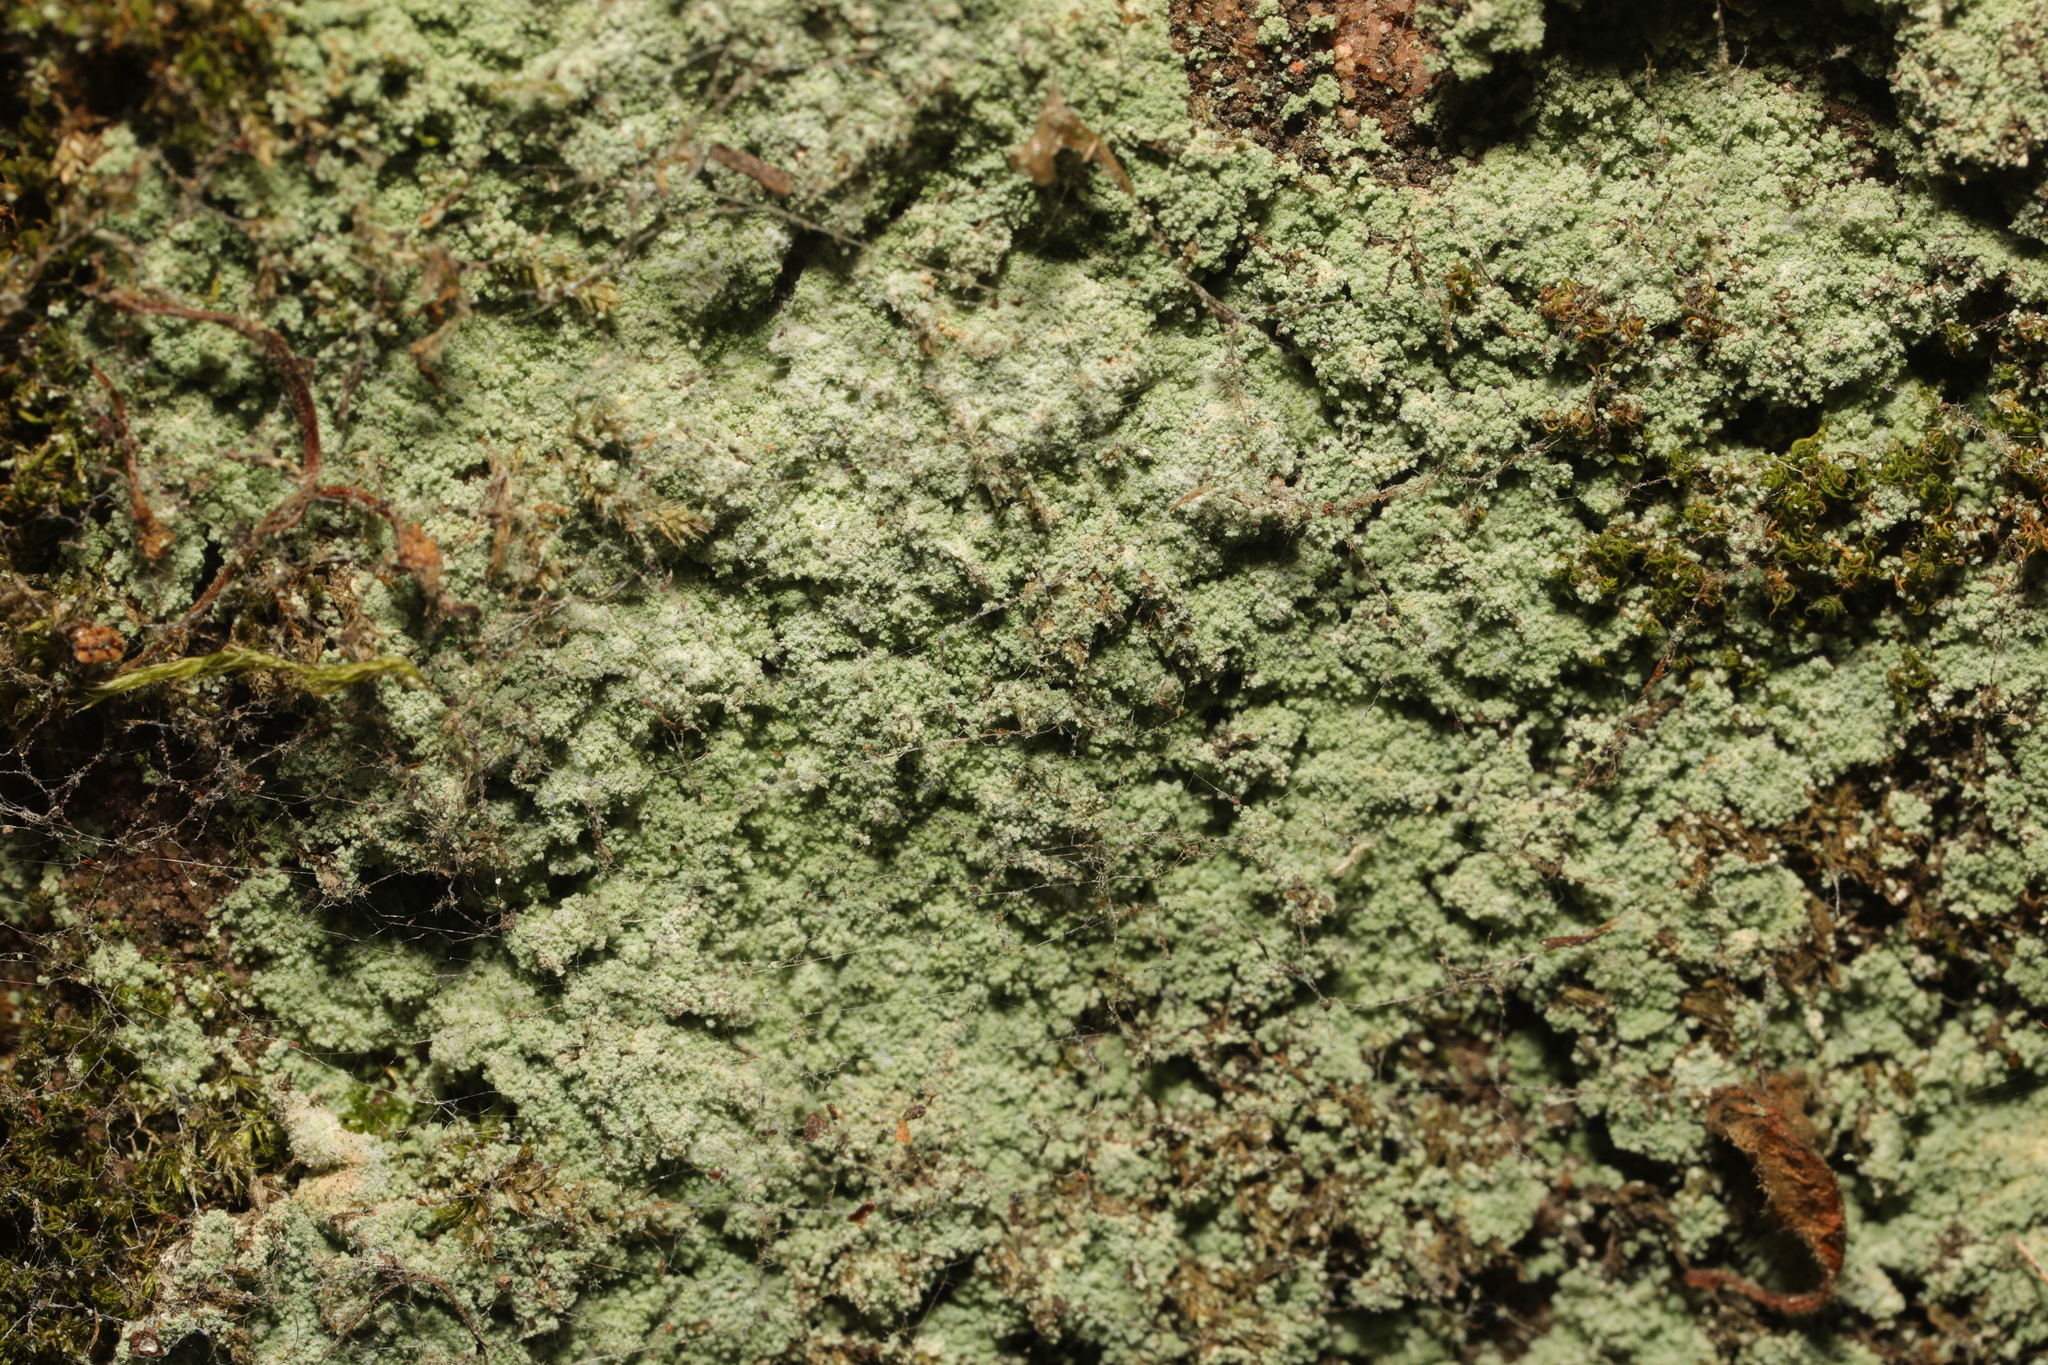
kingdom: Fungi
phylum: Ascomycota
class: Lecanoromycetes
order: Lecanorales
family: Stereocaulaceae
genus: Lepraria
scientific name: Lepraria
